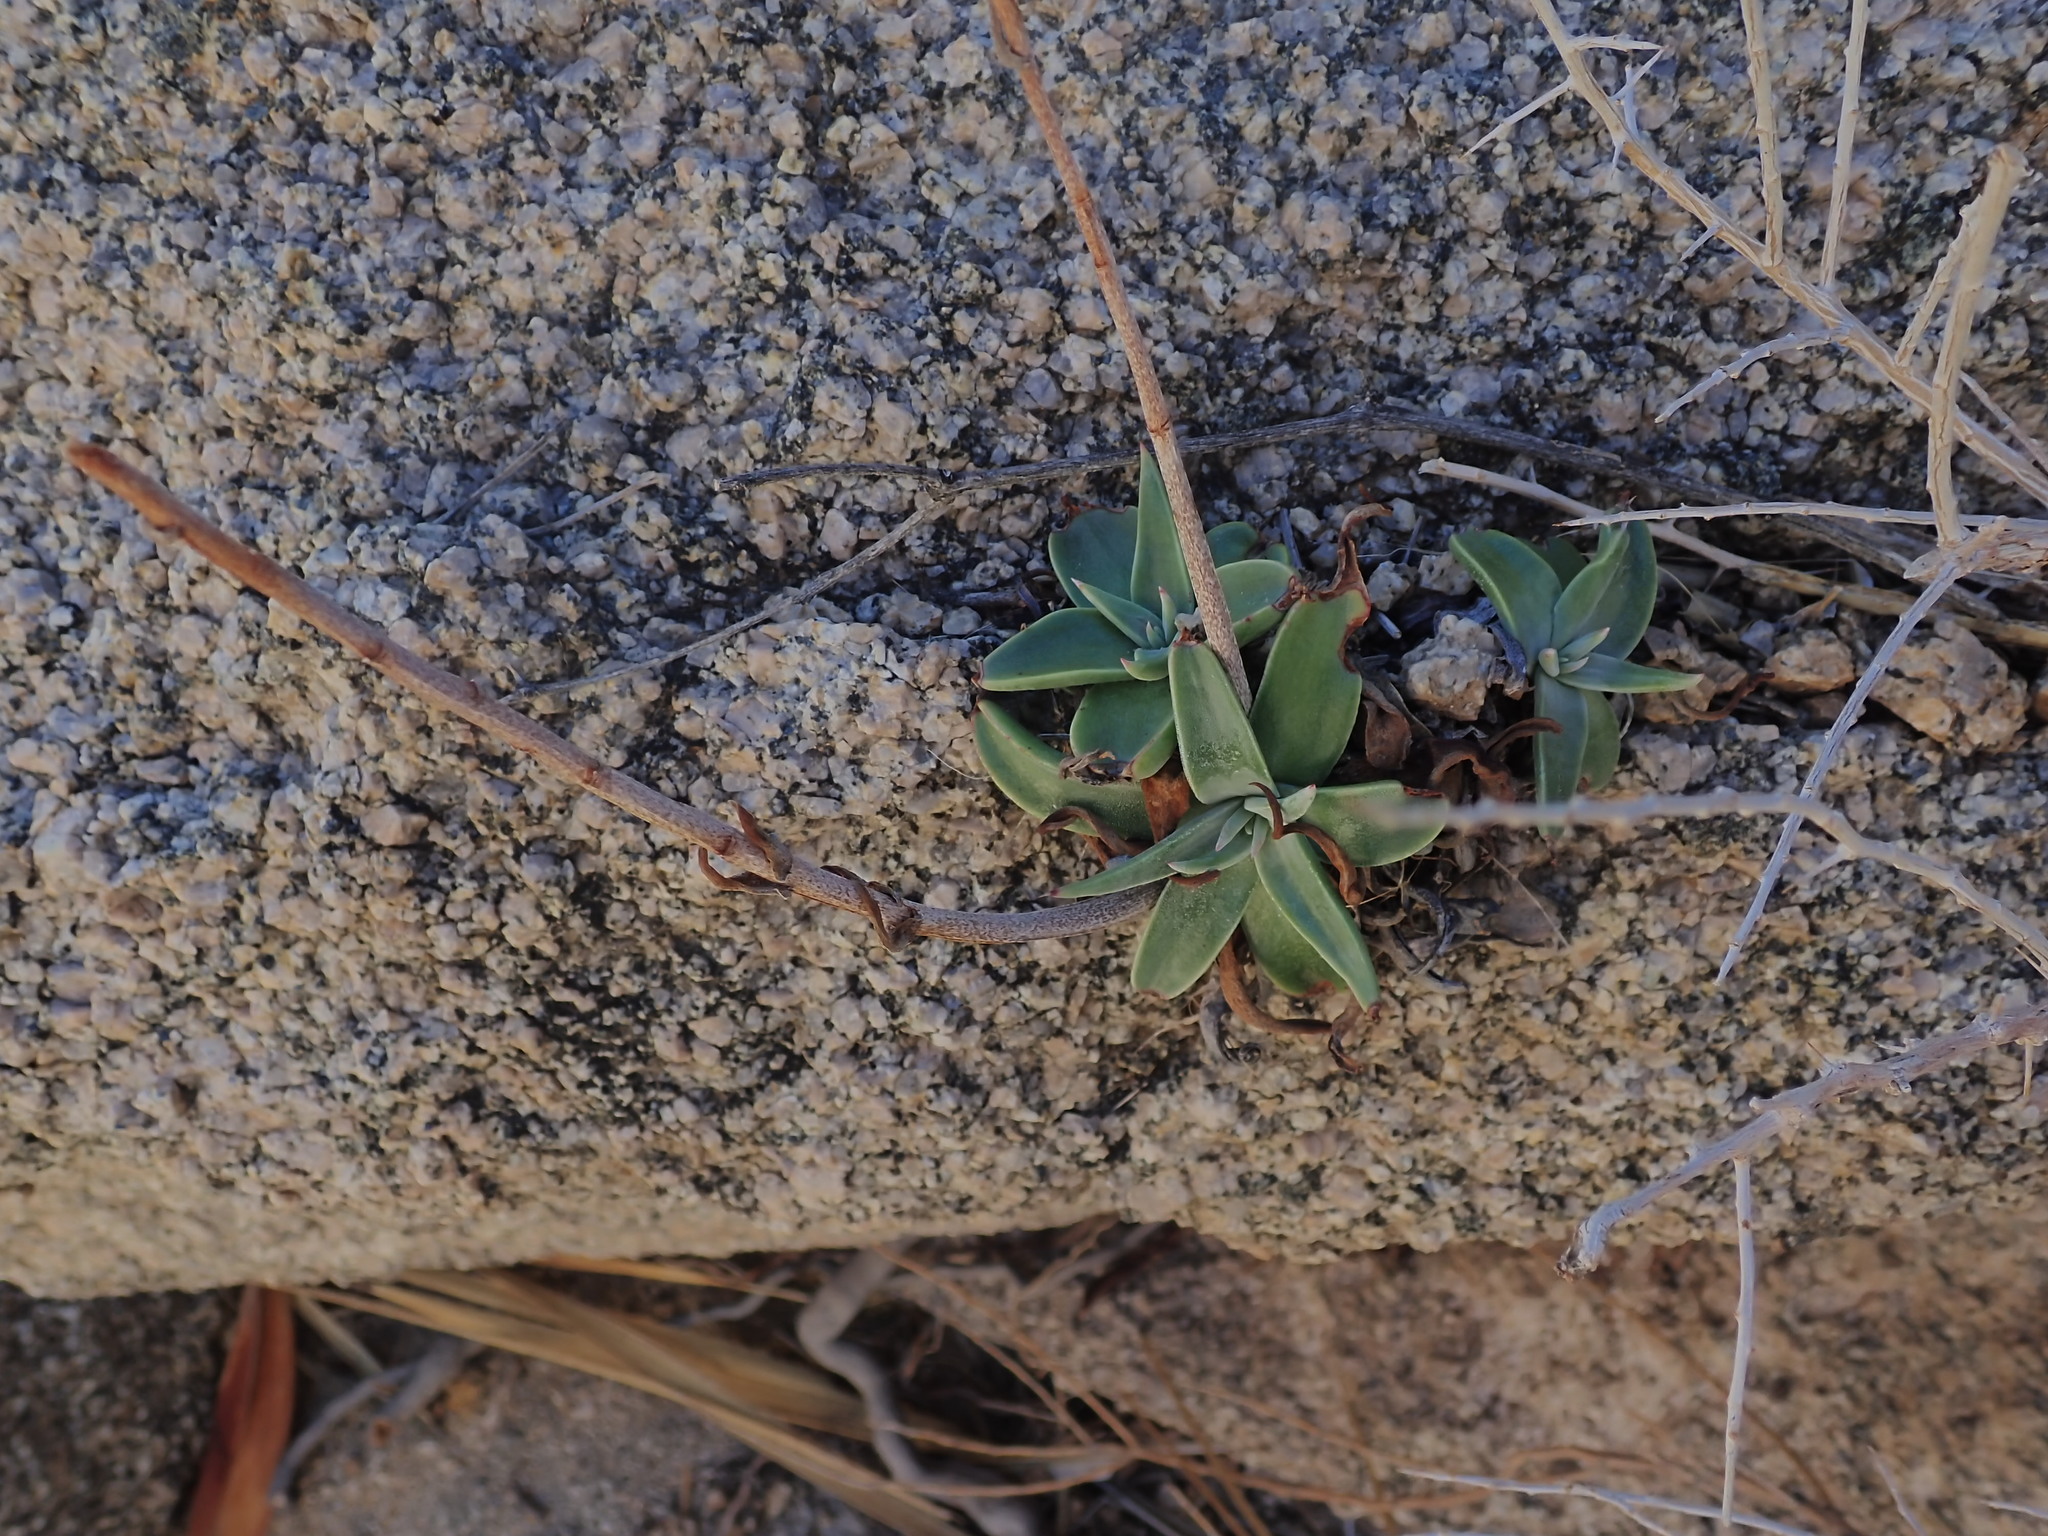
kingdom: Plantae
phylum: Tracheophyta
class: Magnoliopsida
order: Saxifragales
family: Crassulaceae
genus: Dudleya
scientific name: Dudleya saxosa
